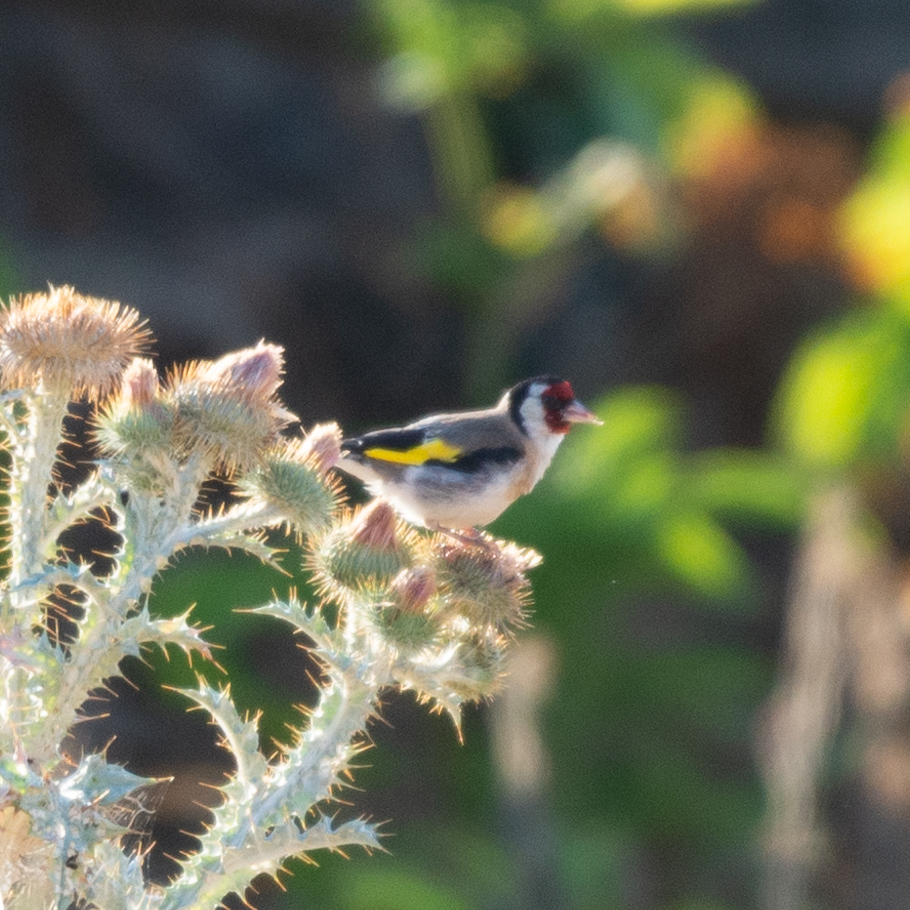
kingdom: Animalia
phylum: Chordata
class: Aves
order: Passeriformes
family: Fringillidae
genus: Carduelis
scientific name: Carduelis carduelis
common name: European goldfinch
